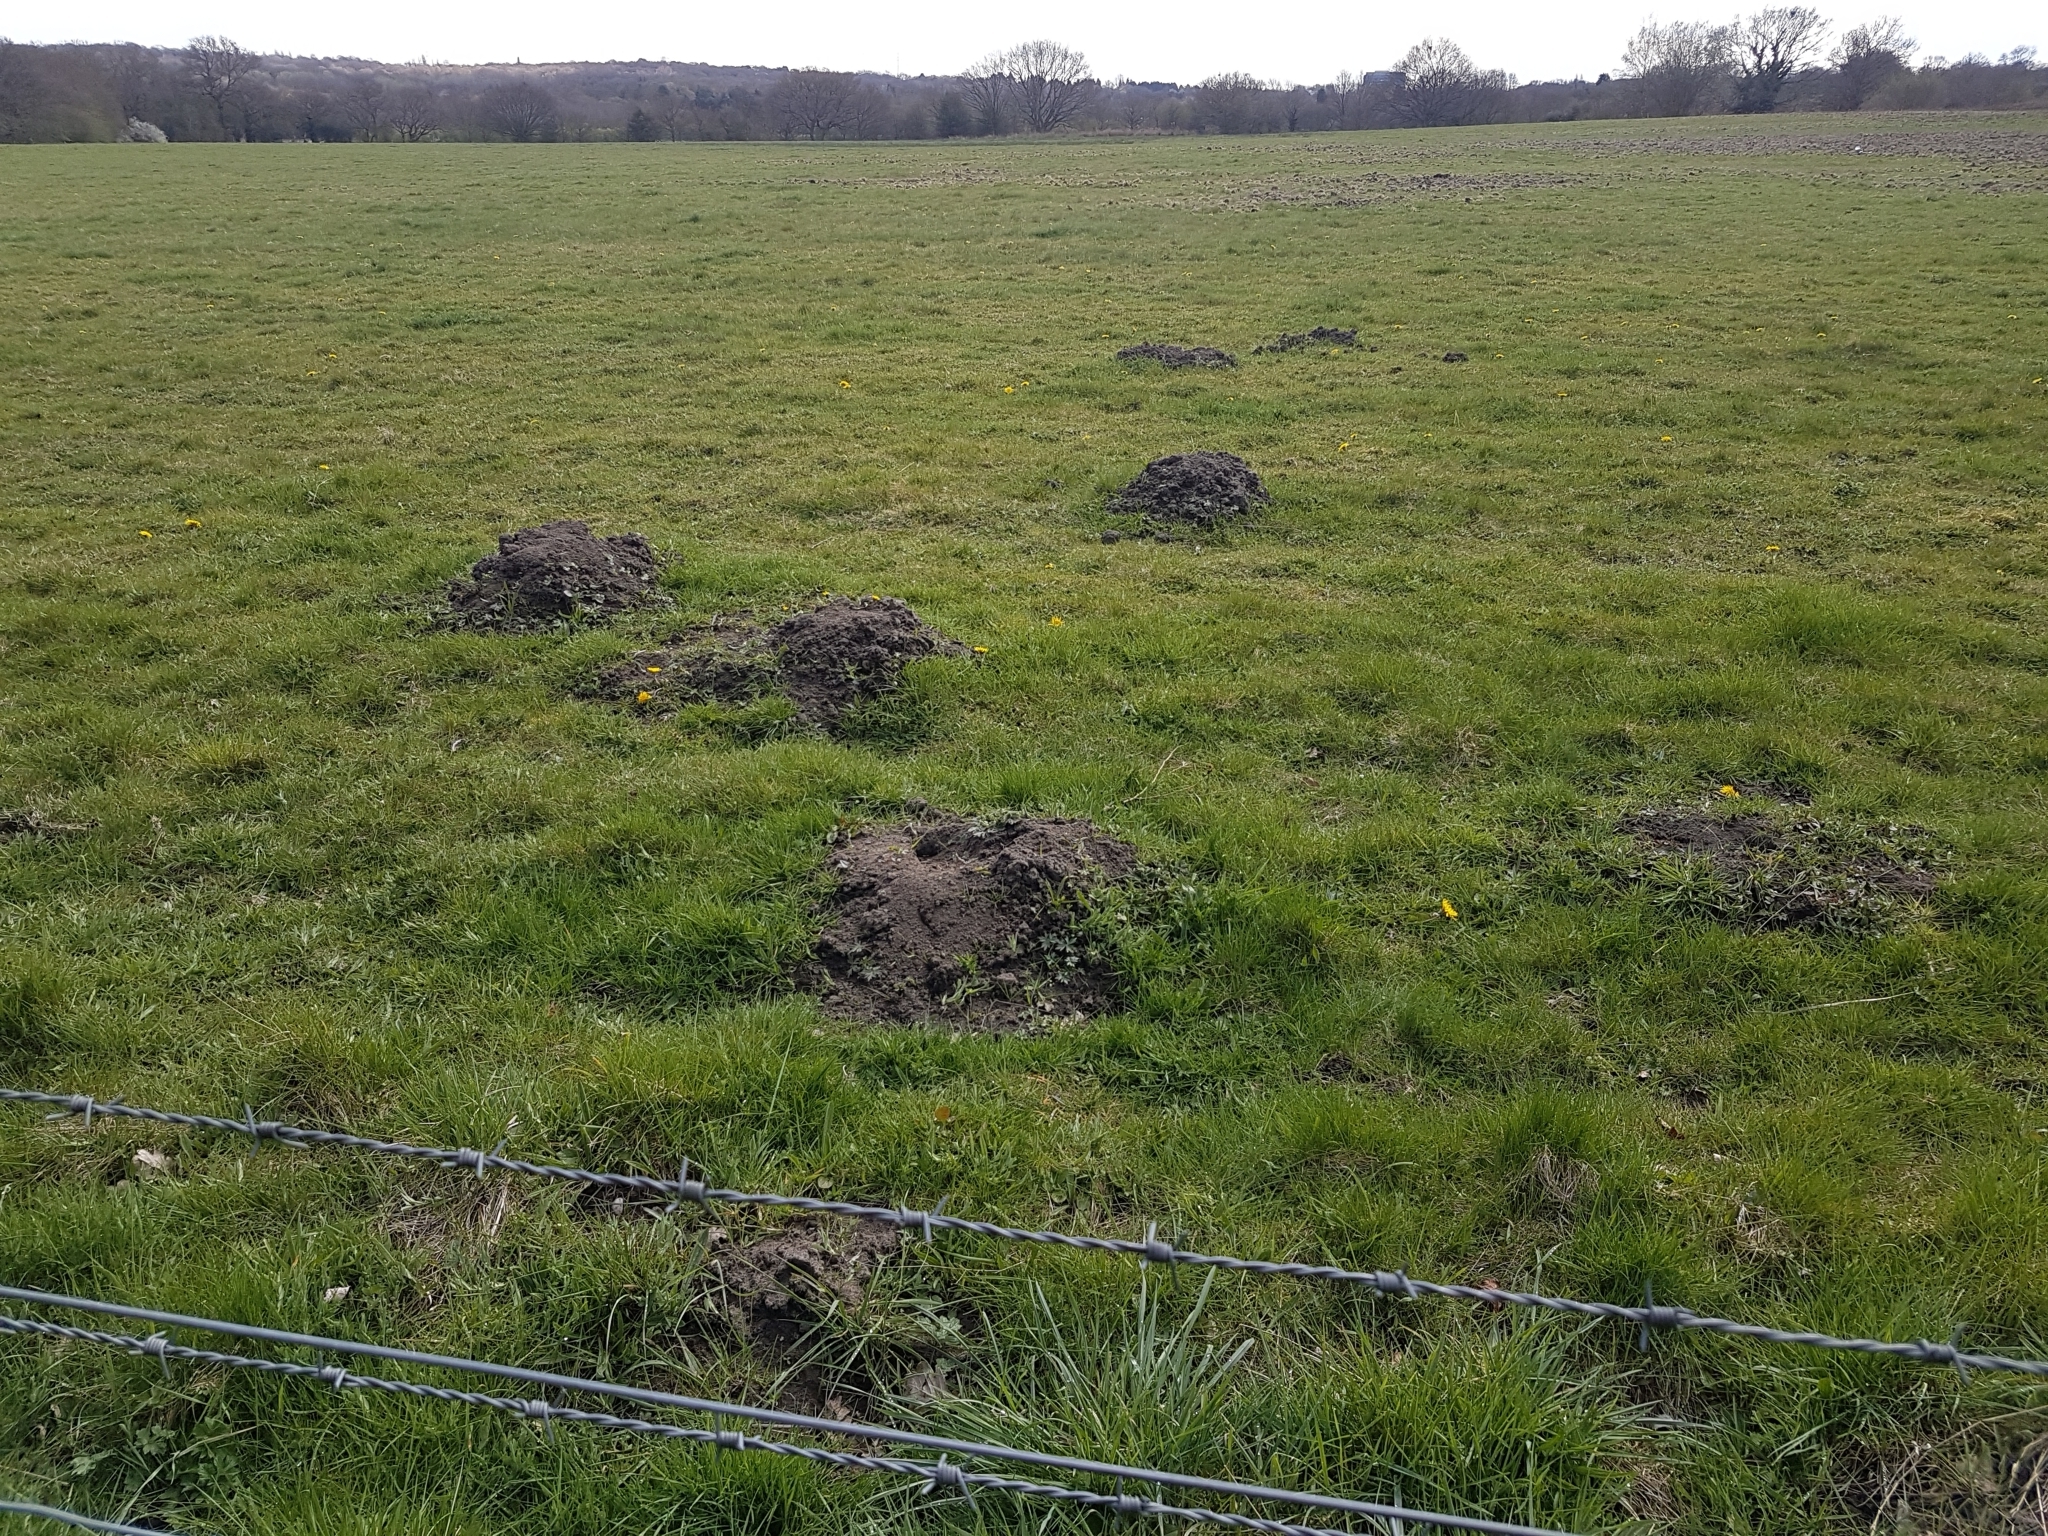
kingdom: Animalia
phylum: Chordata
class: Mammalia
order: Soricomorpha
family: Talpidae
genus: Talpa
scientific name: Talpa europaea
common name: European mole
